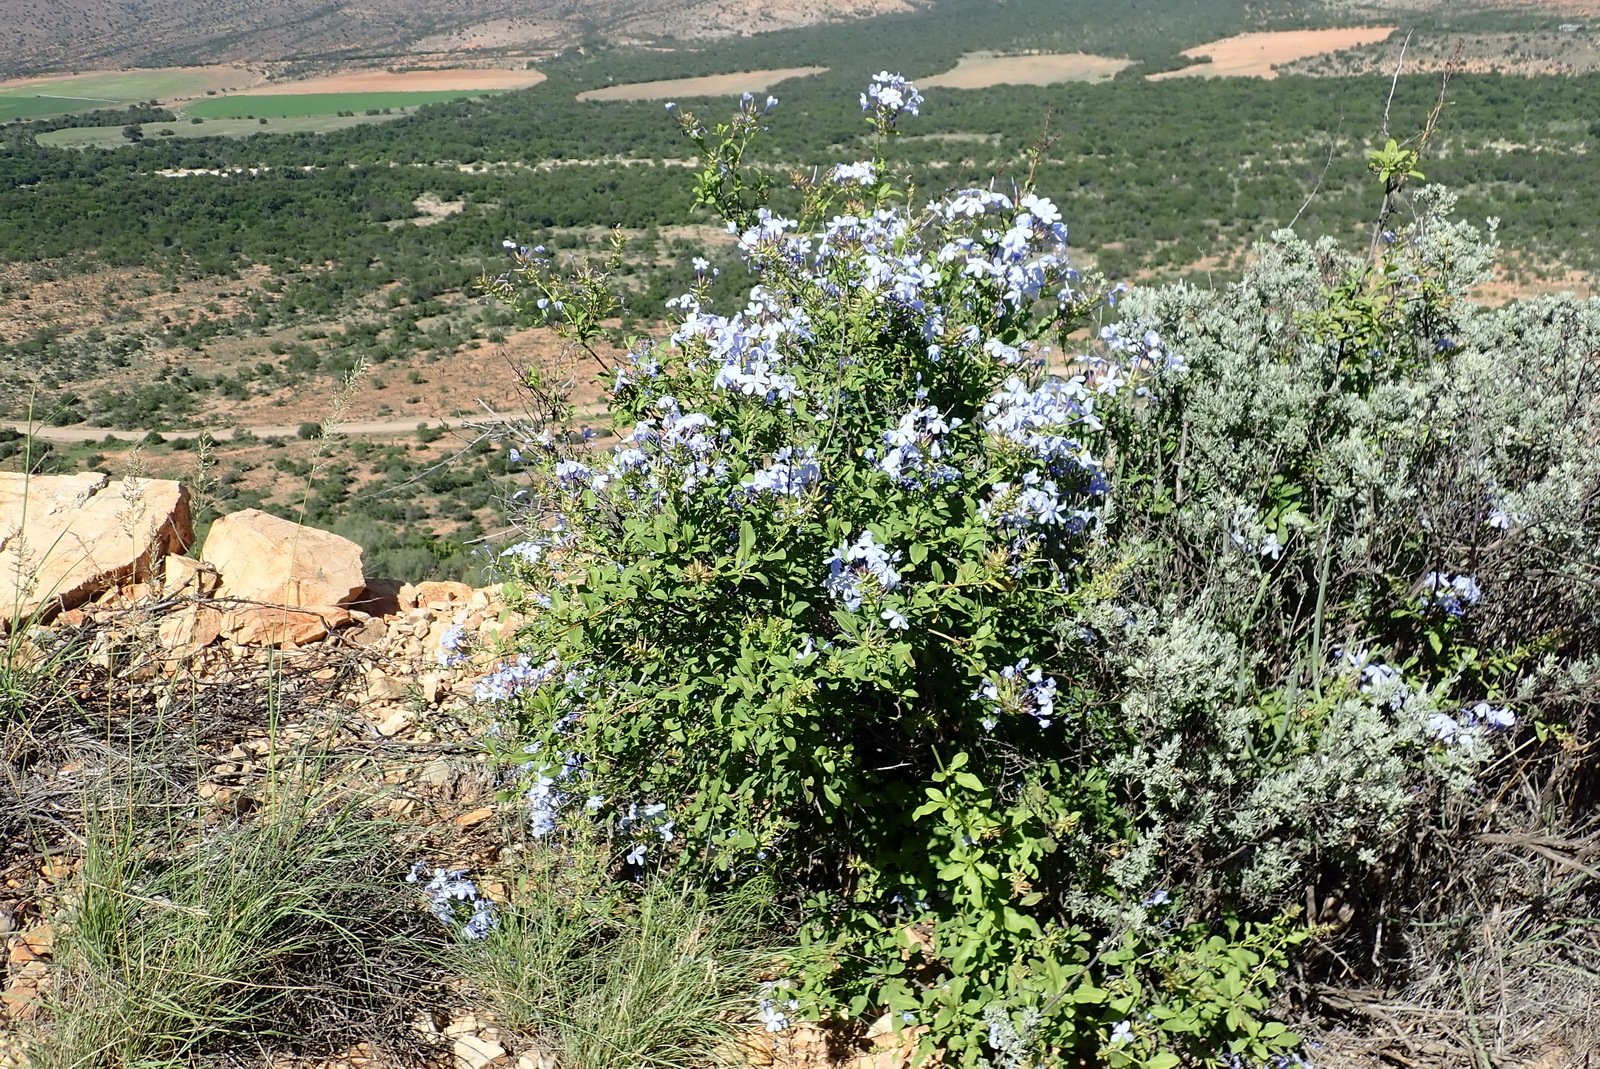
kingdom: Plantae
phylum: Tracheophyta
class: Magnoliopsida
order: Caryophyllales
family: Plumbaginaceae
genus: Plumbago
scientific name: Plumbago auriculata
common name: Cape leadwort
